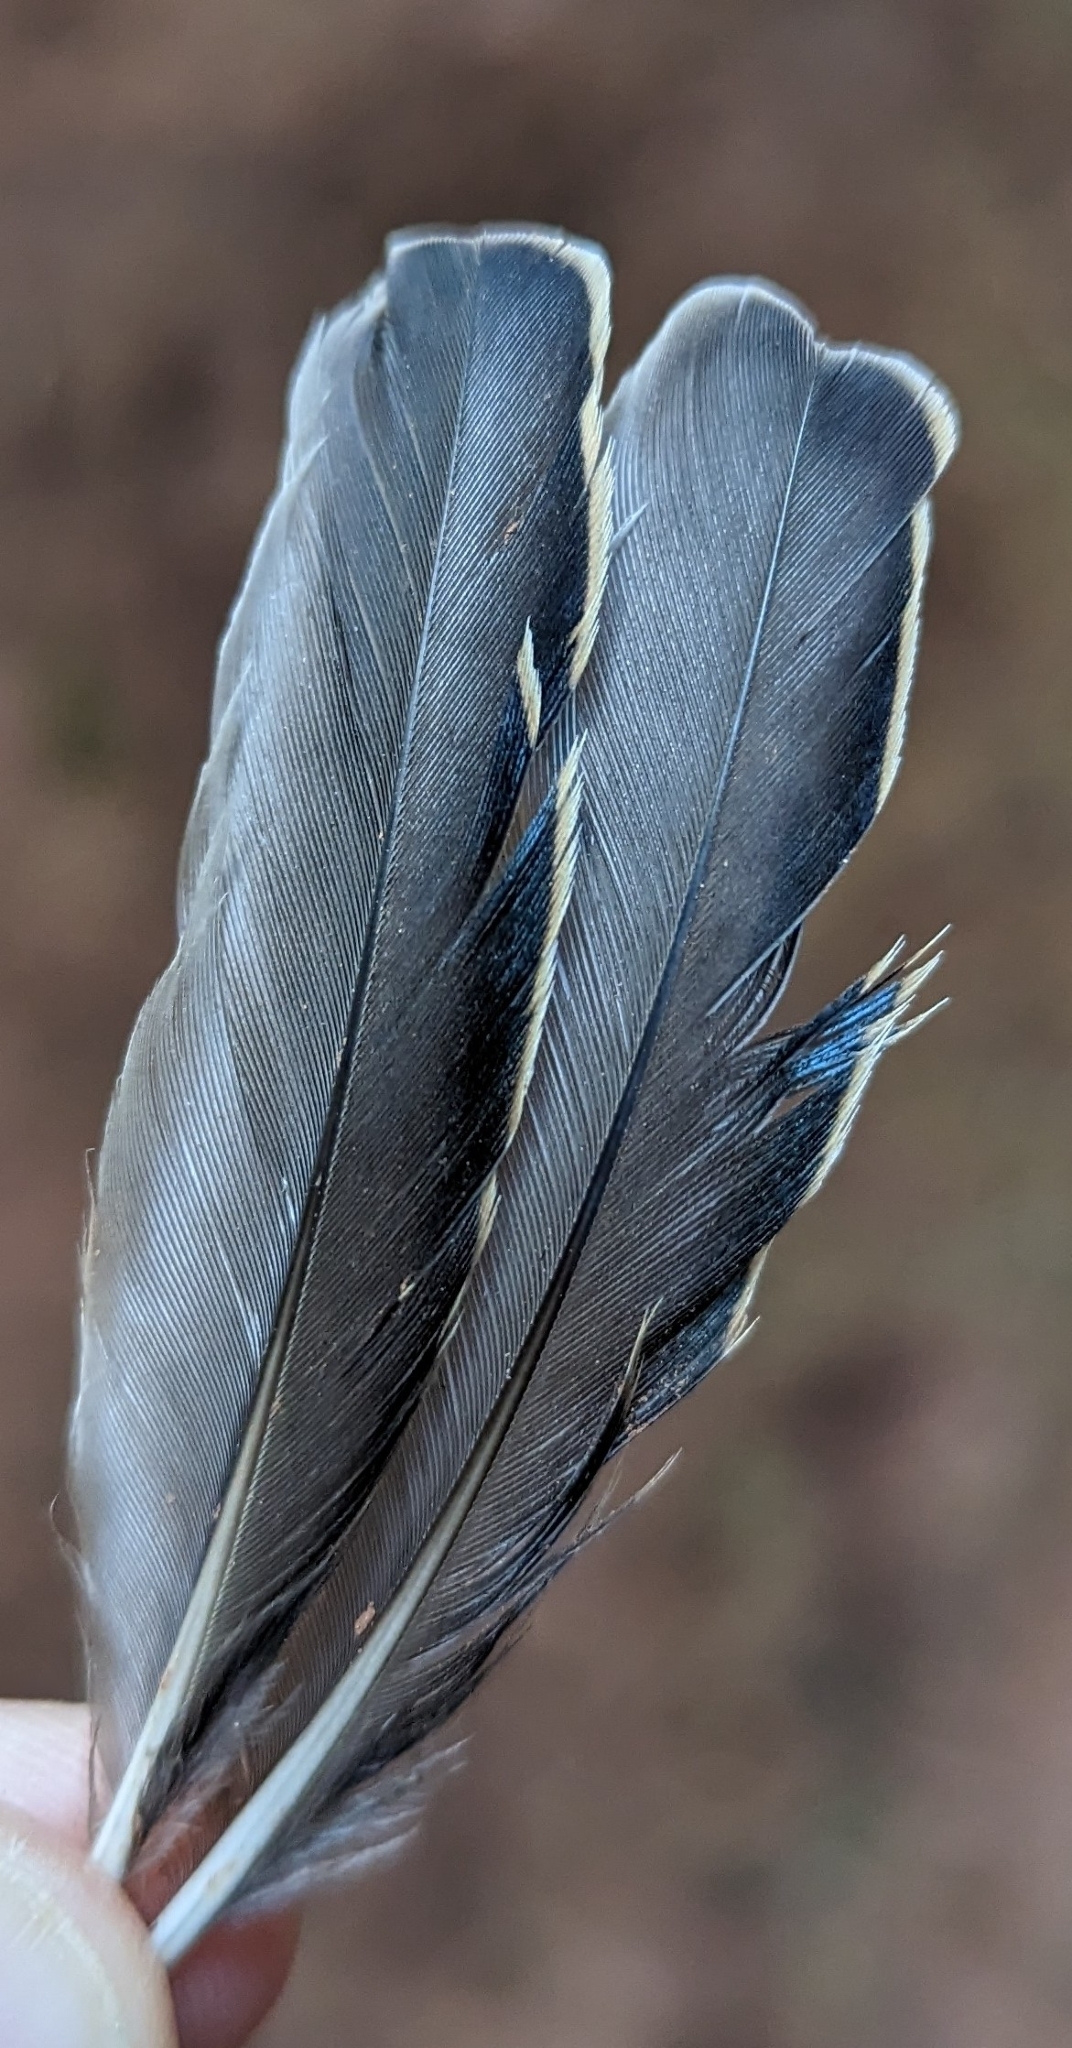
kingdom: Animalia
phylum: Chordata
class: Aves
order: Passeriformes
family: Sturnidae
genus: Sturnus
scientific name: Sturnus vulgaris
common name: Common starling
